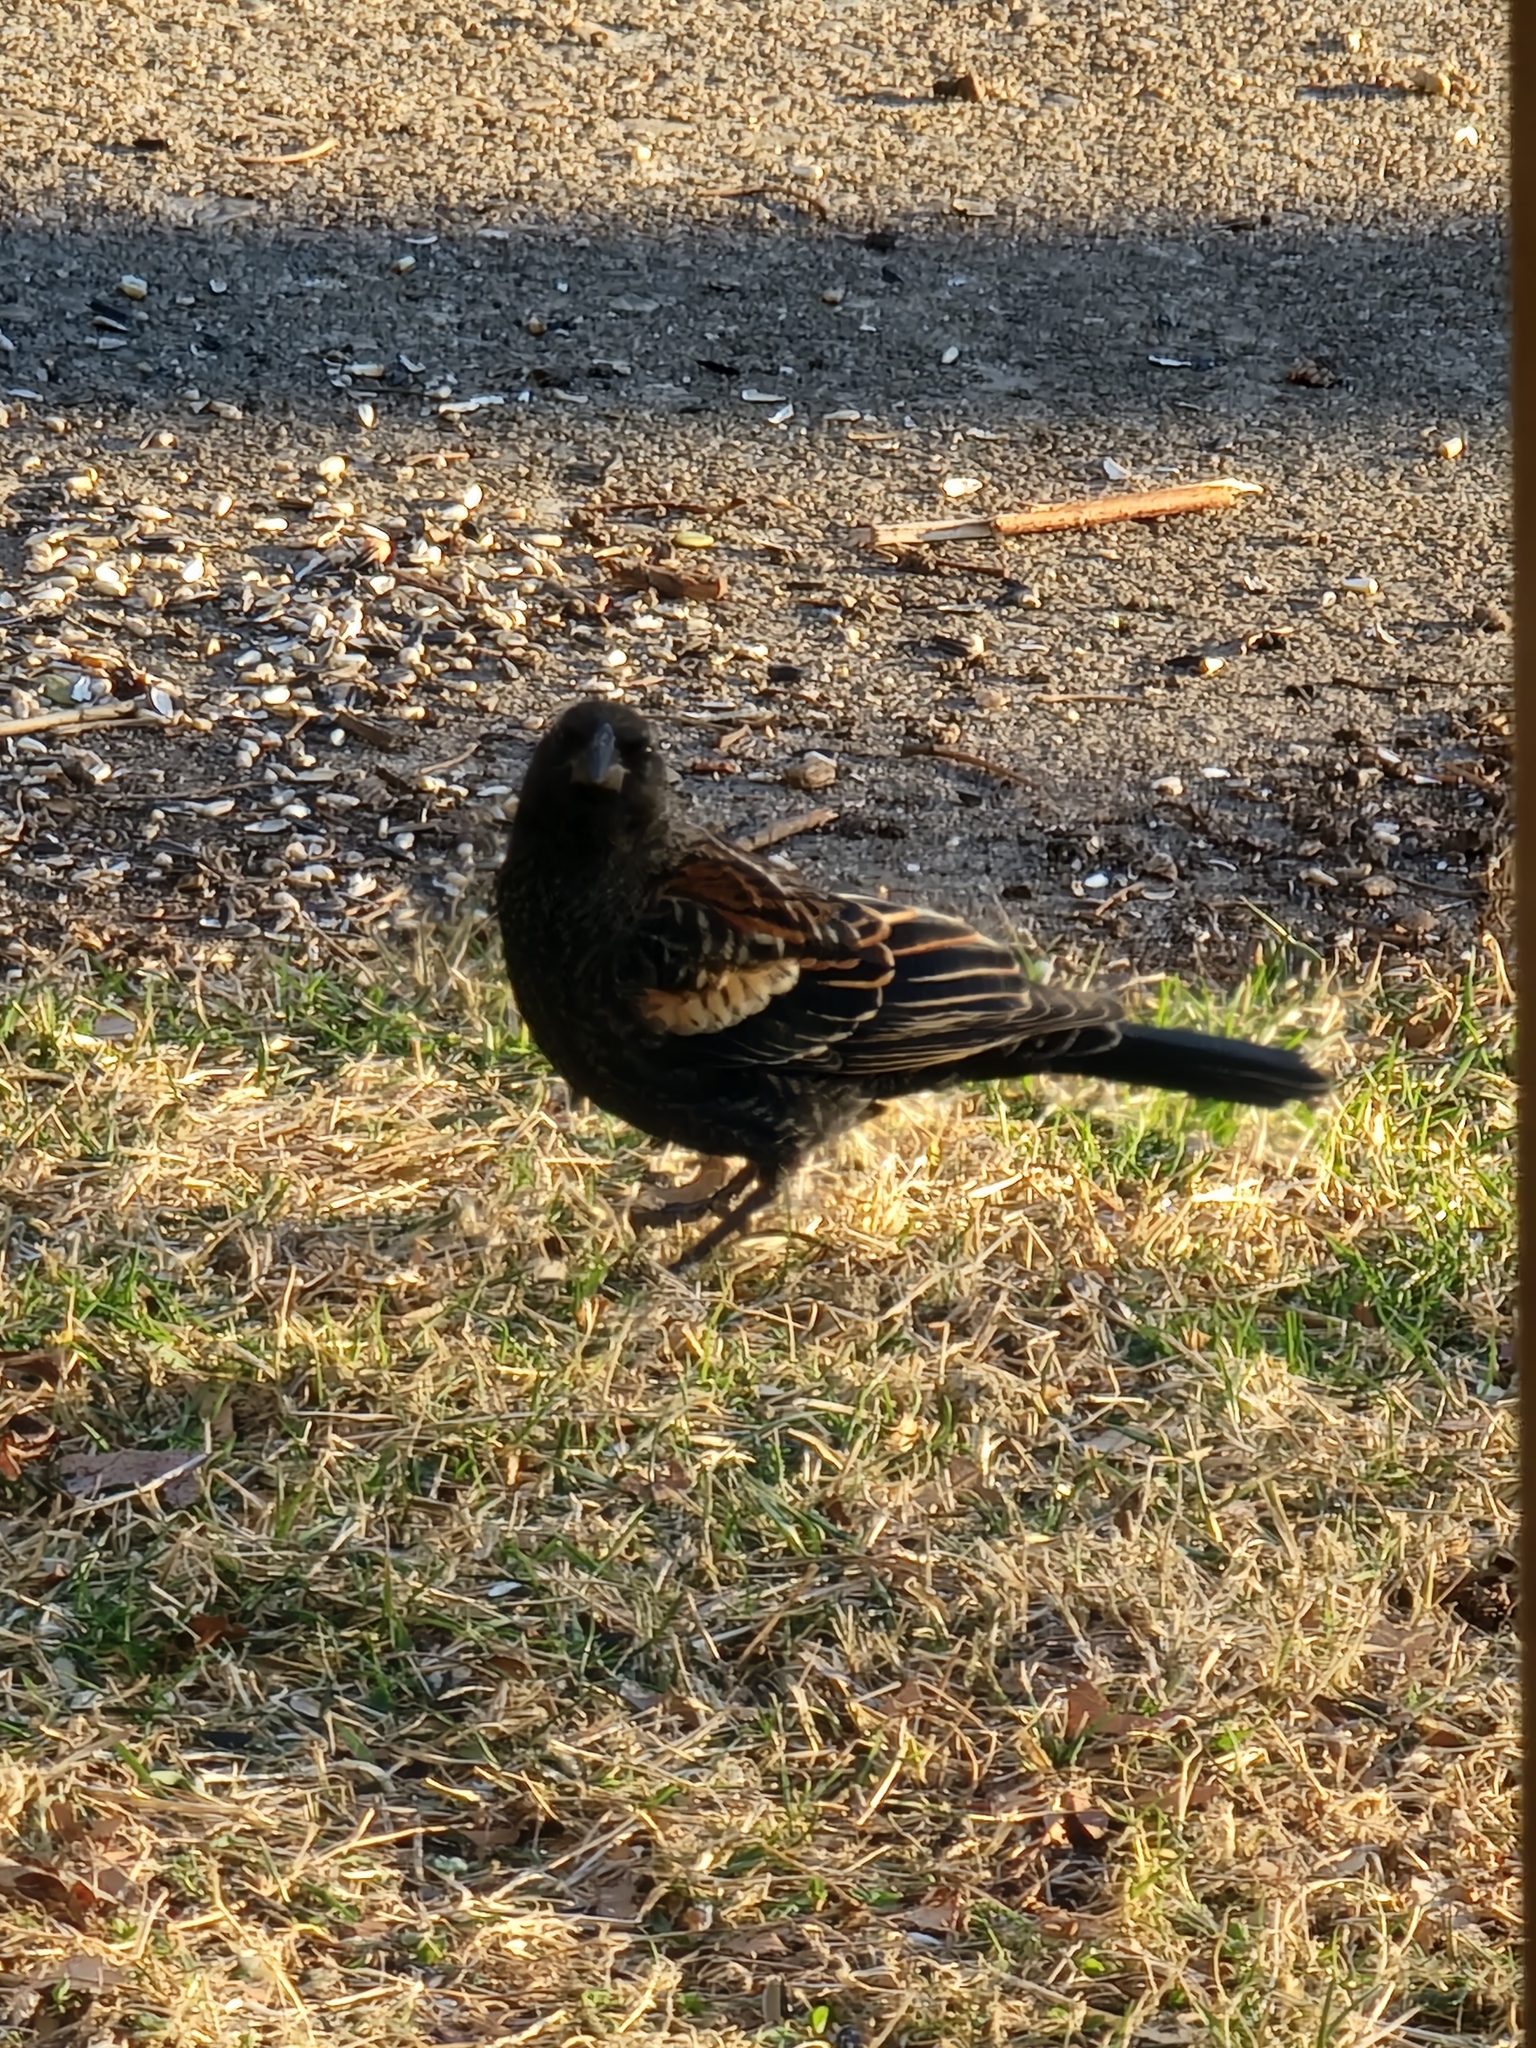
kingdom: Animalia
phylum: Chordata
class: Aves
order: Passeriformes
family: Icteridae
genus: Agelaius
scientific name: Agelaius phoeniceus
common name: Red-winged blackbird
